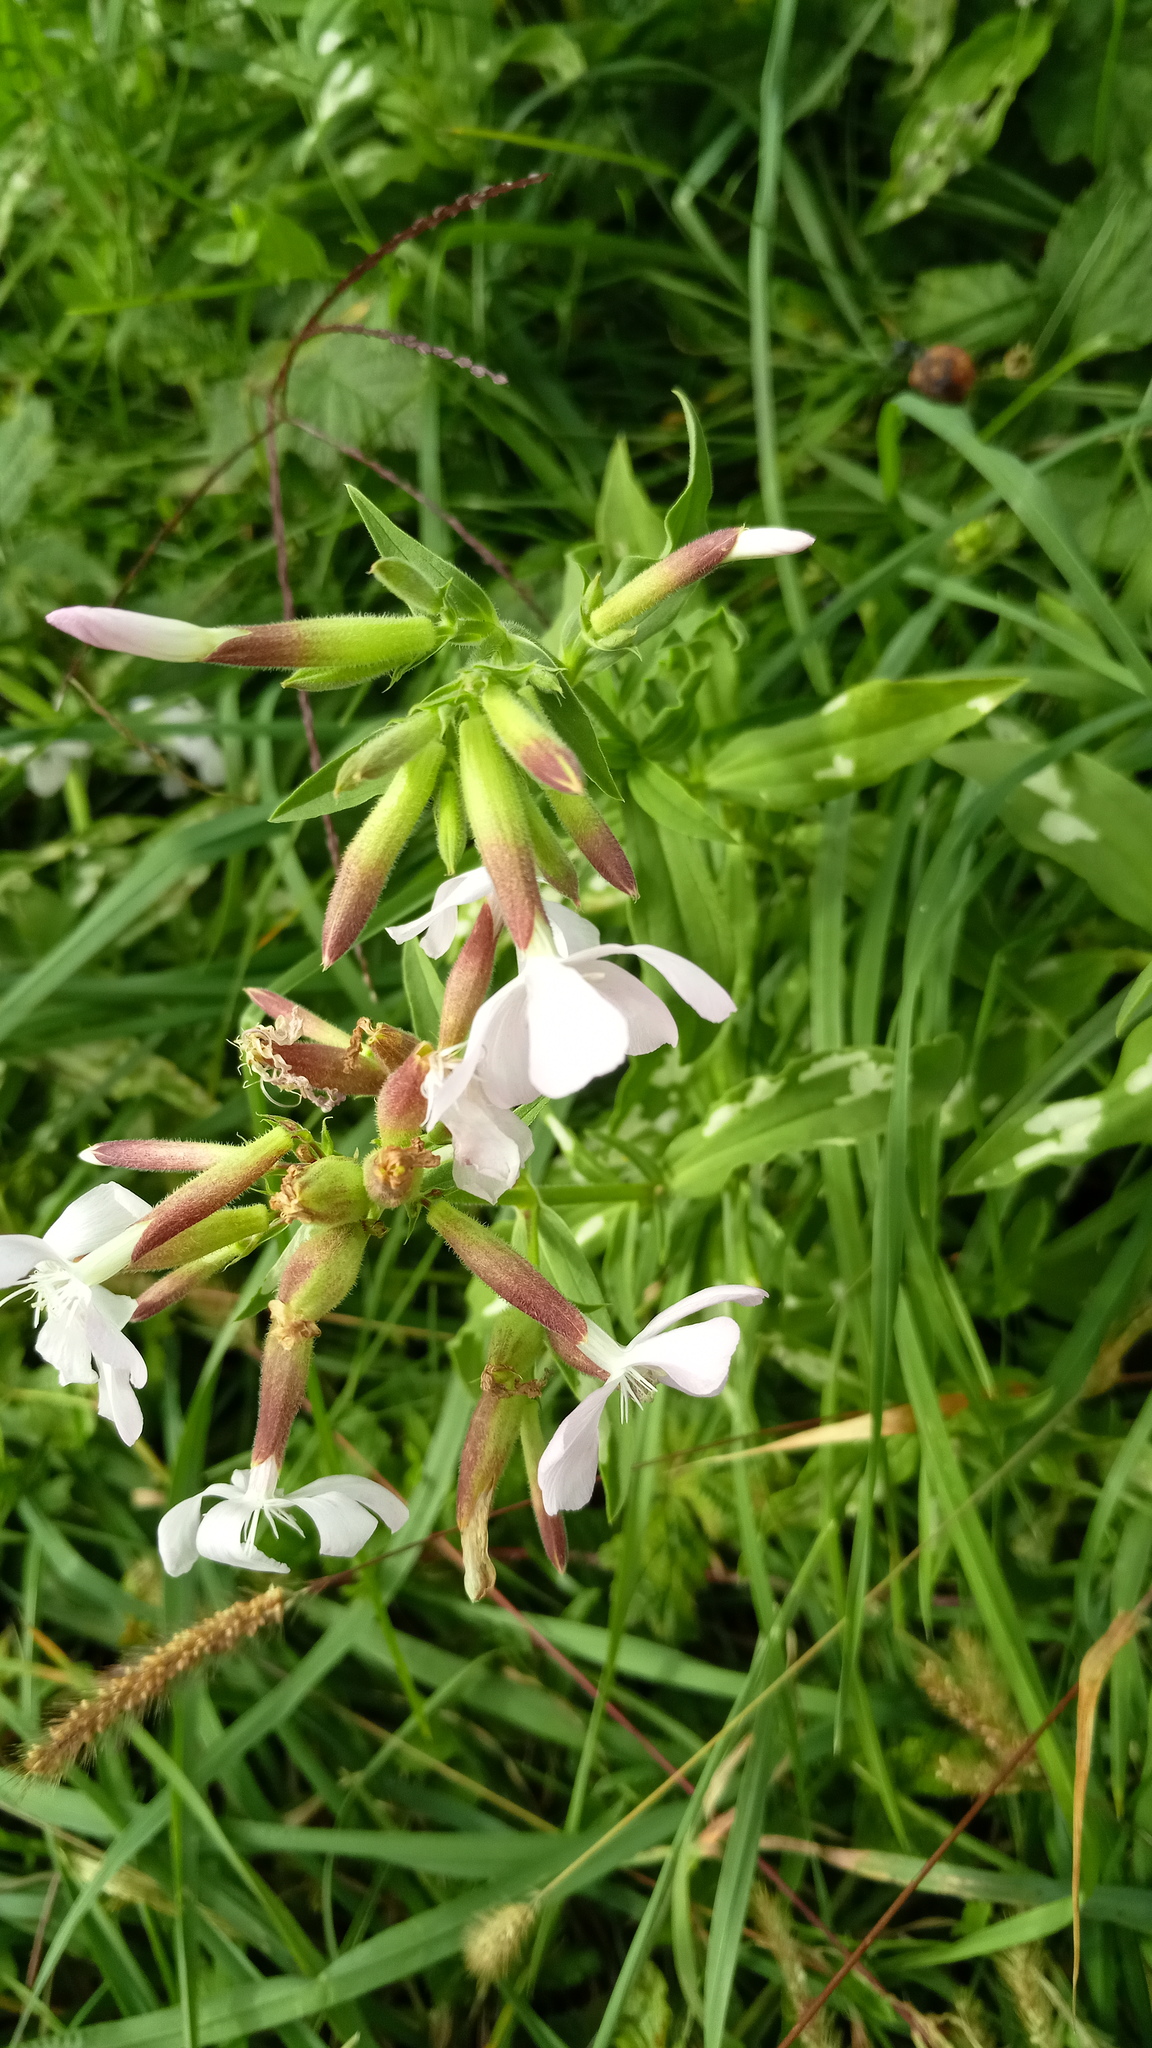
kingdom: Plantae
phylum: Tracheophyta
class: Magnoliopsida
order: Caryophyllales
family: Caryophyllaceae
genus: Saponaria
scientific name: Saponaria officinalis
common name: Soapwort
